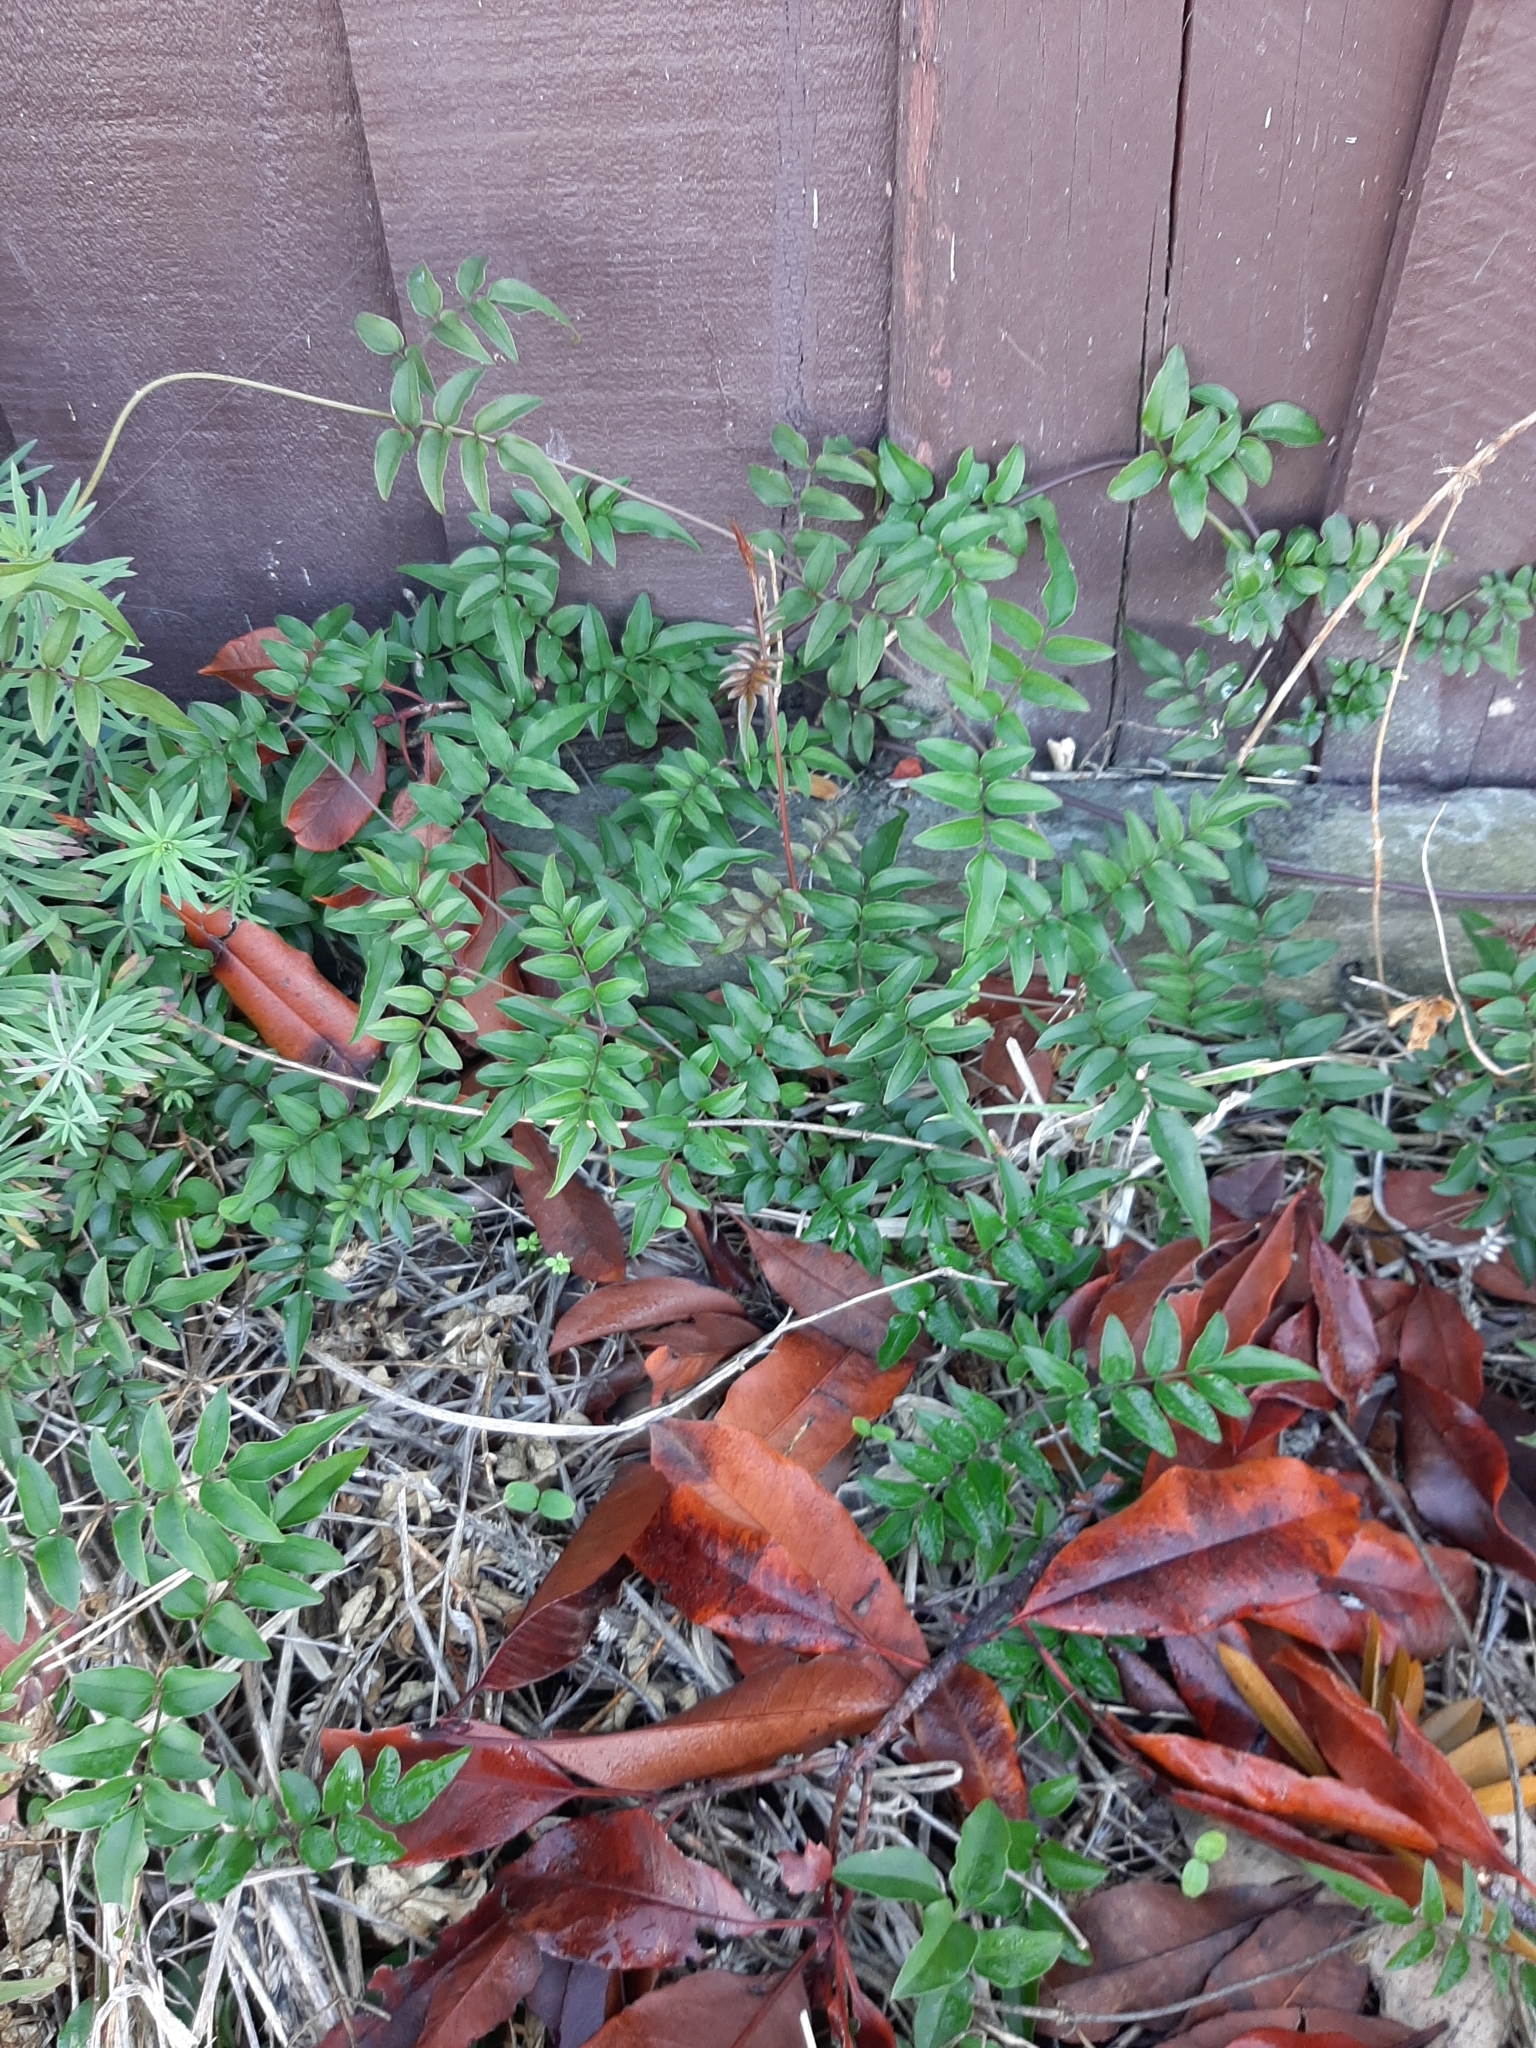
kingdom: Plantae
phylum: Tracheophyta
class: Magnoliopsida
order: Lamiales
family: Oleaceae
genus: Jasminum
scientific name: Jasminum polyanthum
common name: Pink jasmine
